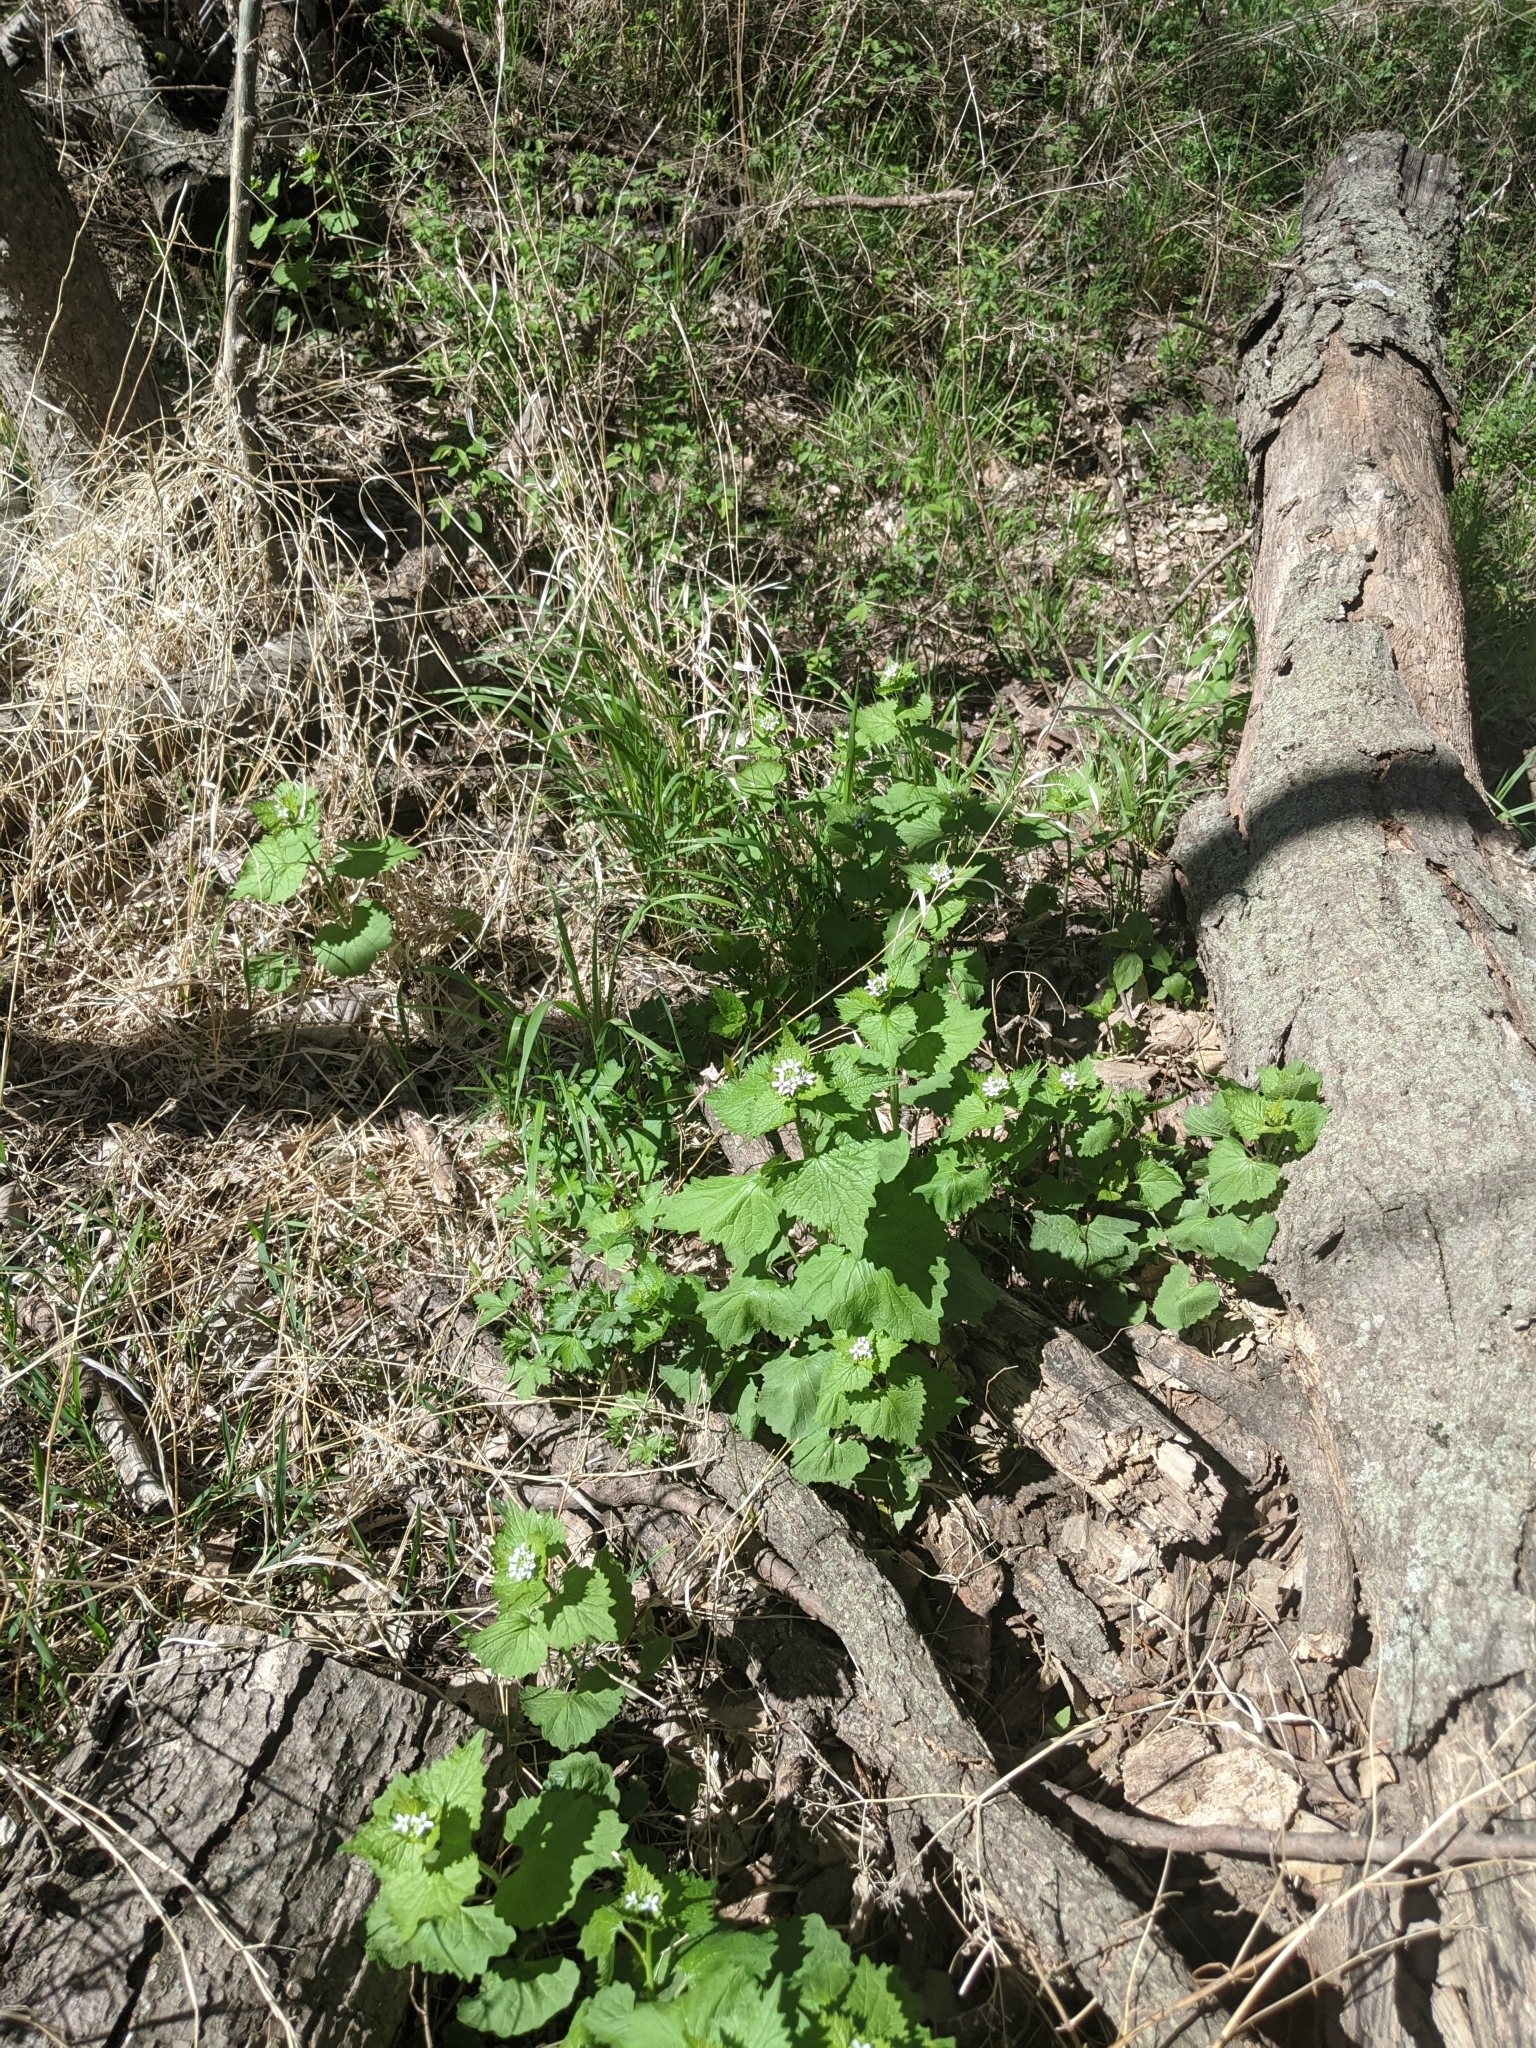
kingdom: Plantae
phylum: Tracheophyta
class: Magnoliopsida
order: Brassicales
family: Brassicaceae
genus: Alliaria
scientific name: Alliaria petiolata
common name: Garlic mustard
